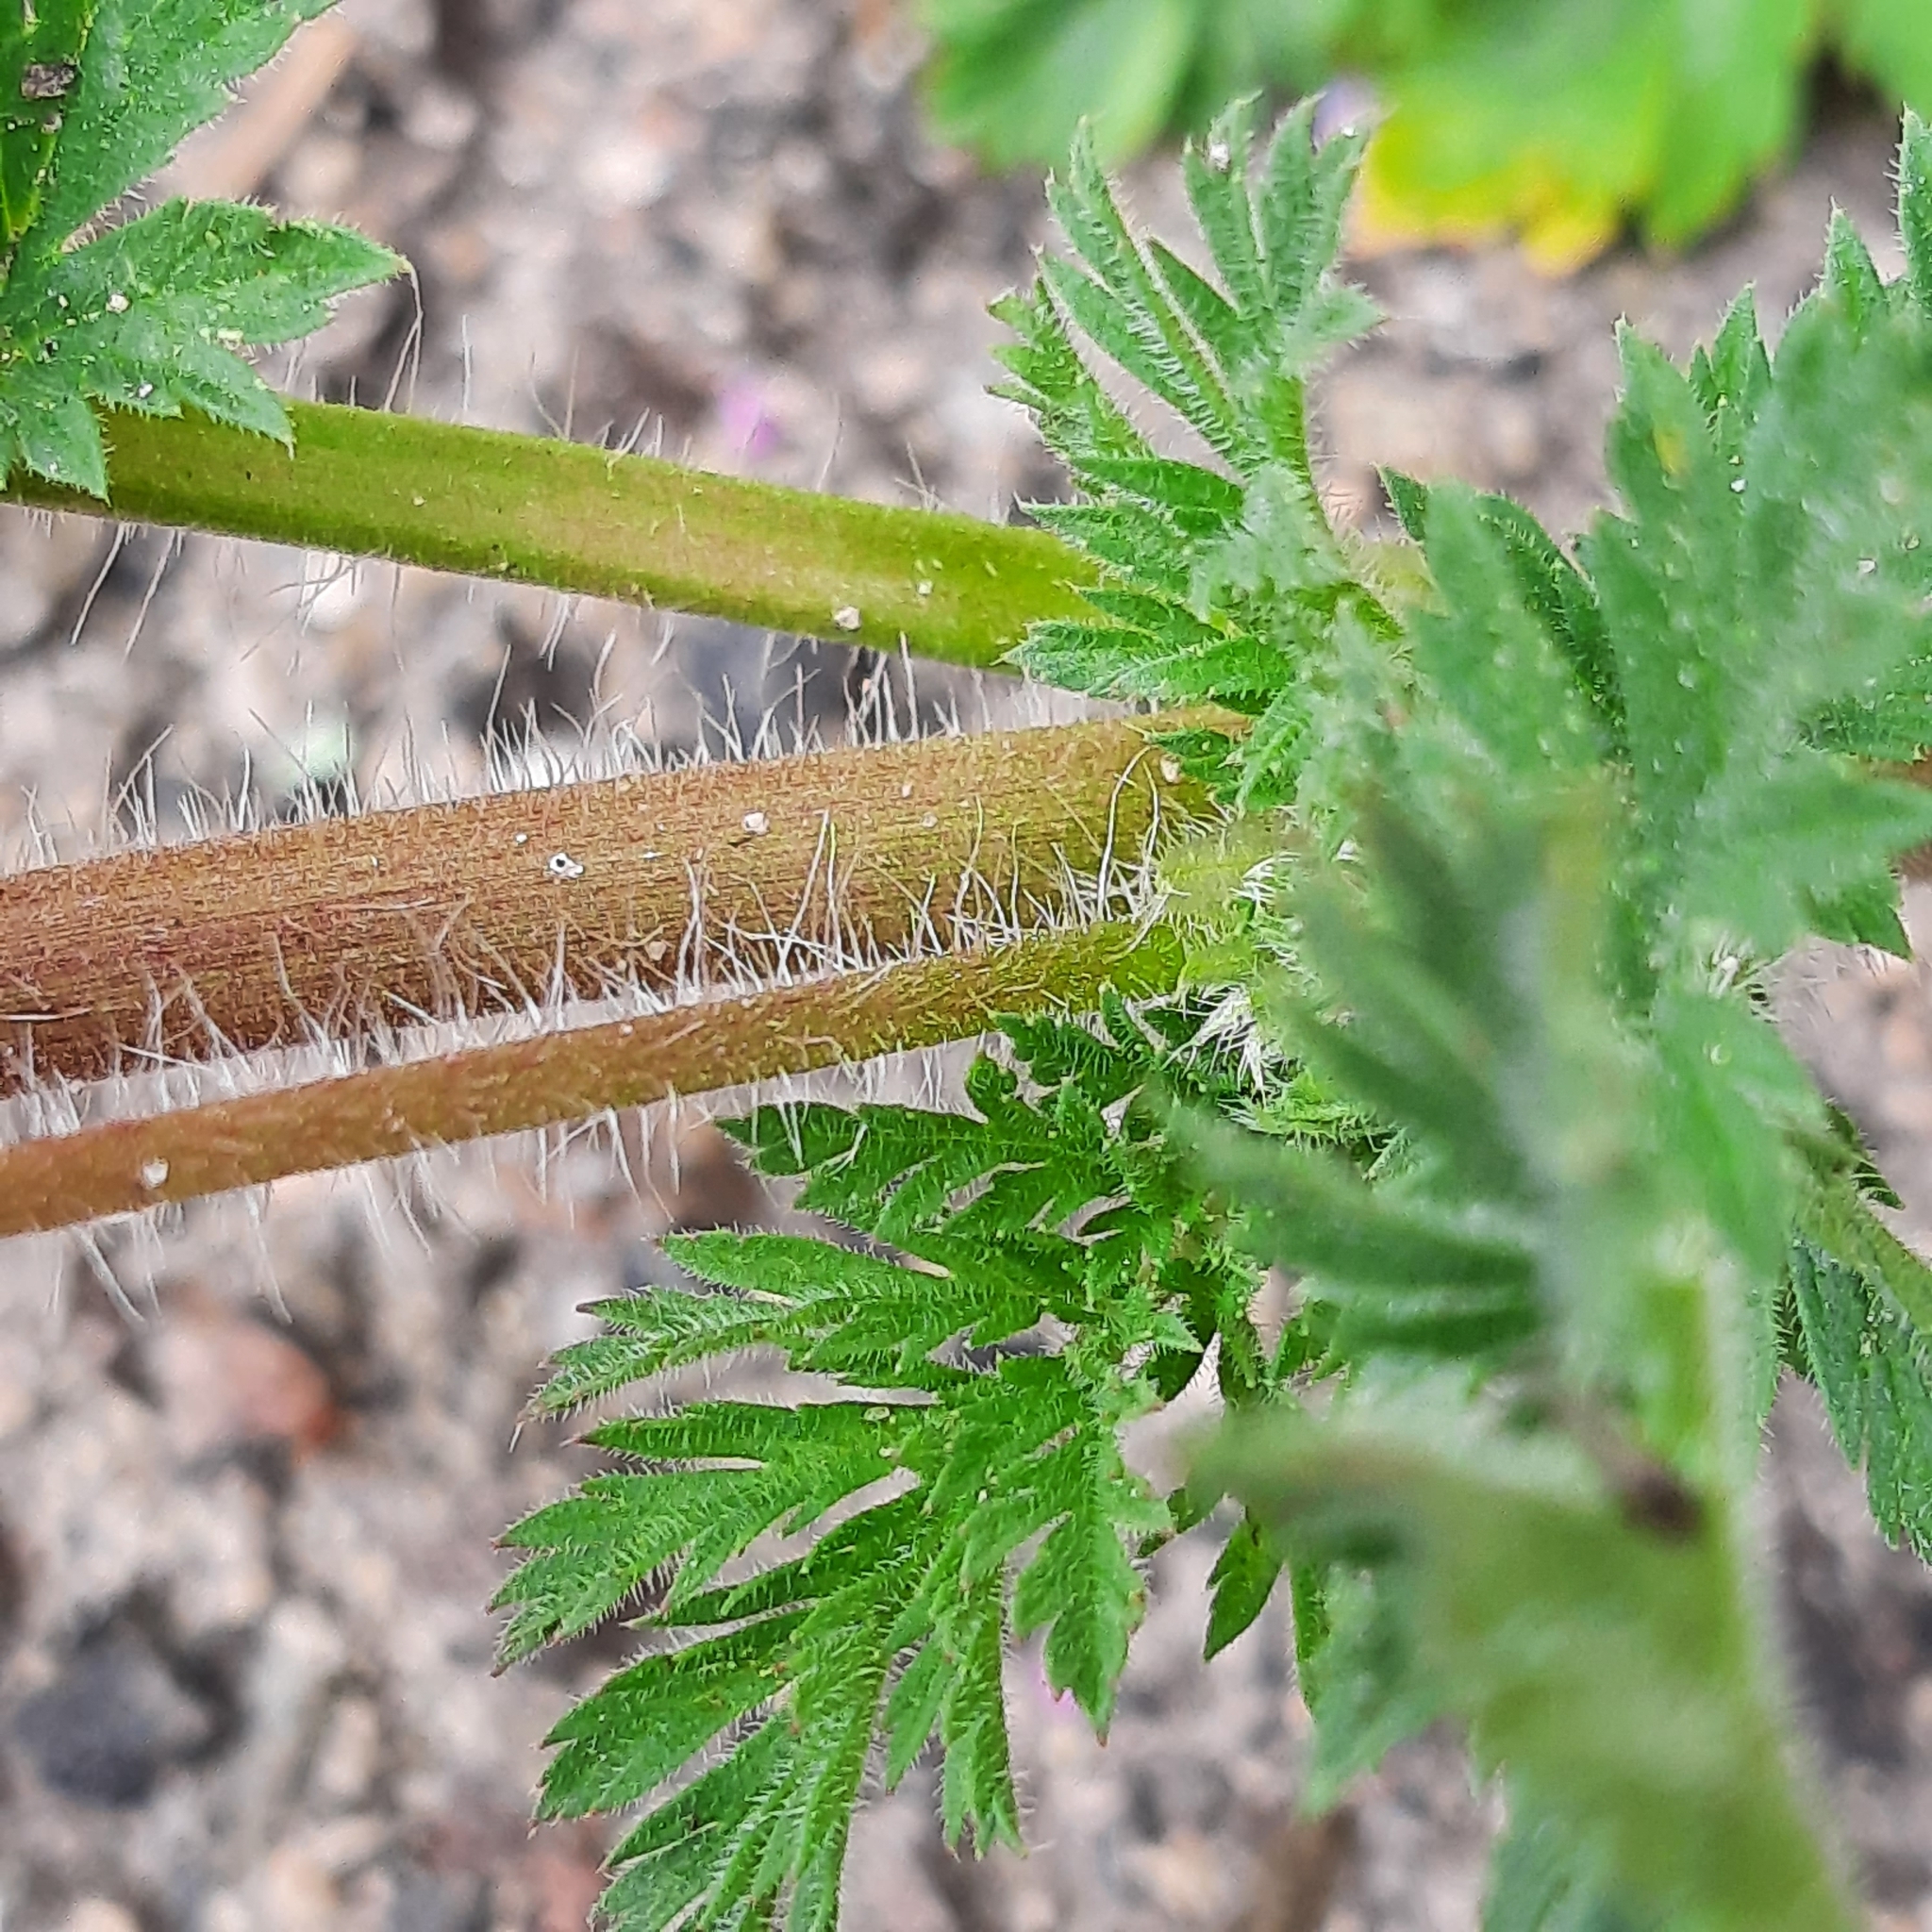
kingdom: Plantae
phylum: Tracheophyta
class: Magnoliopsida
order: Geraniales
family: Geraniaceae
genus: Erodium
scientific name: Erodium cicutarium
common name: Common stork's-bill
